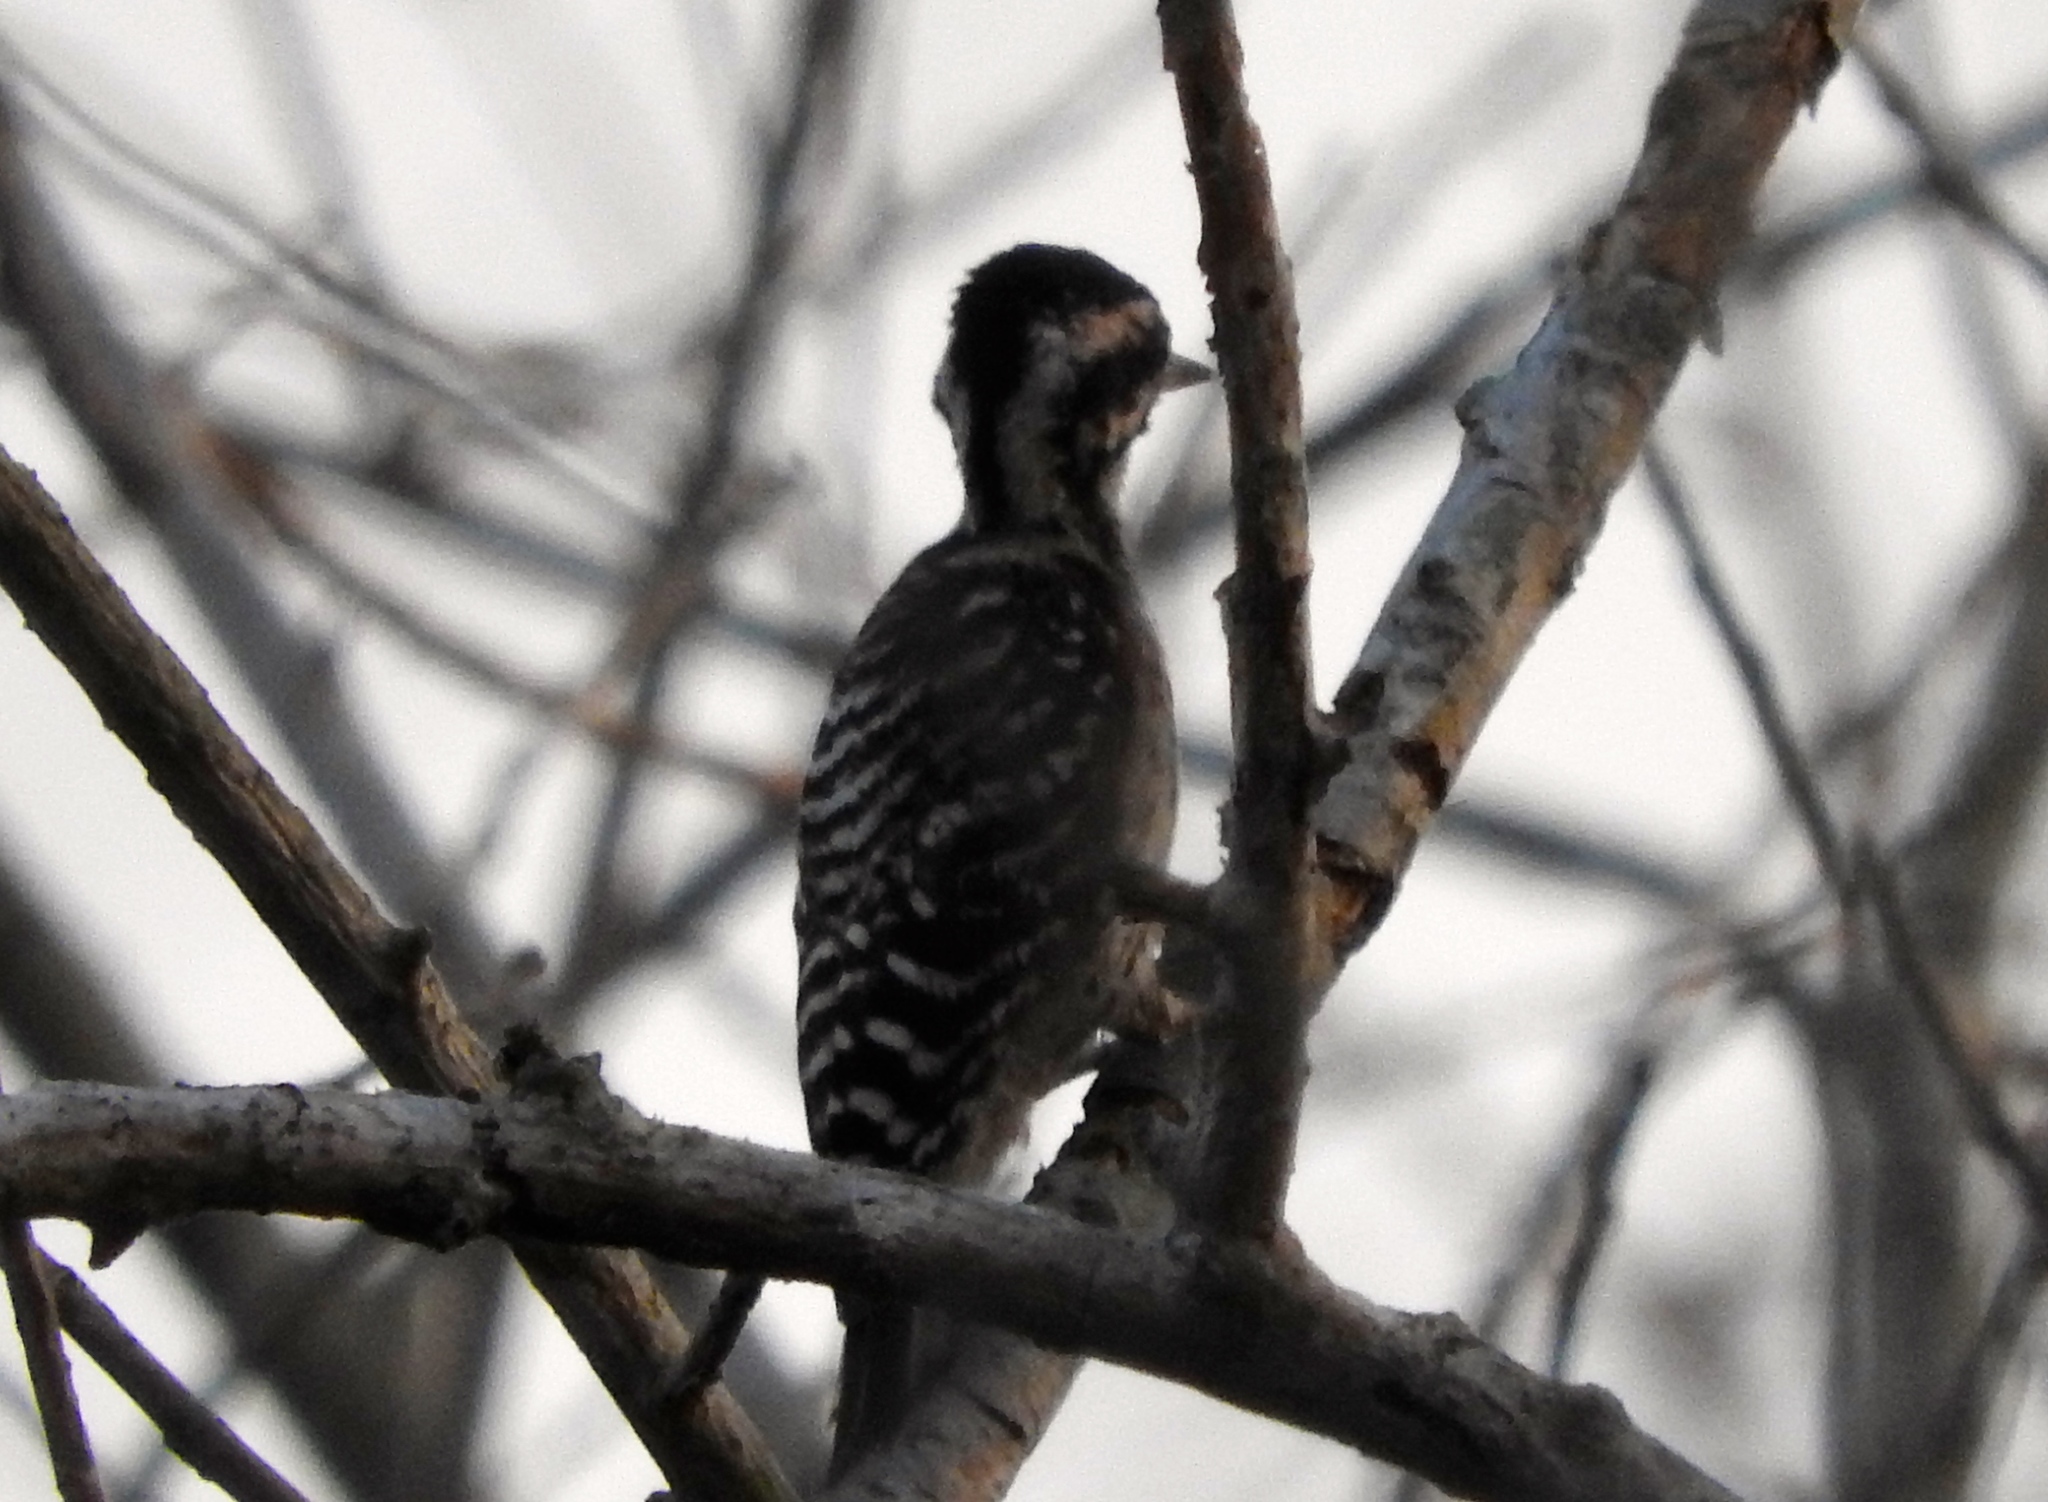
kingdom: Animalia
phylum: Chordata
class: Aves
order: Piciformes
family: Picidae
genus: Dryobates
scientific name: Dryobates scalaris
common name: Ladder-backed woodpecker
